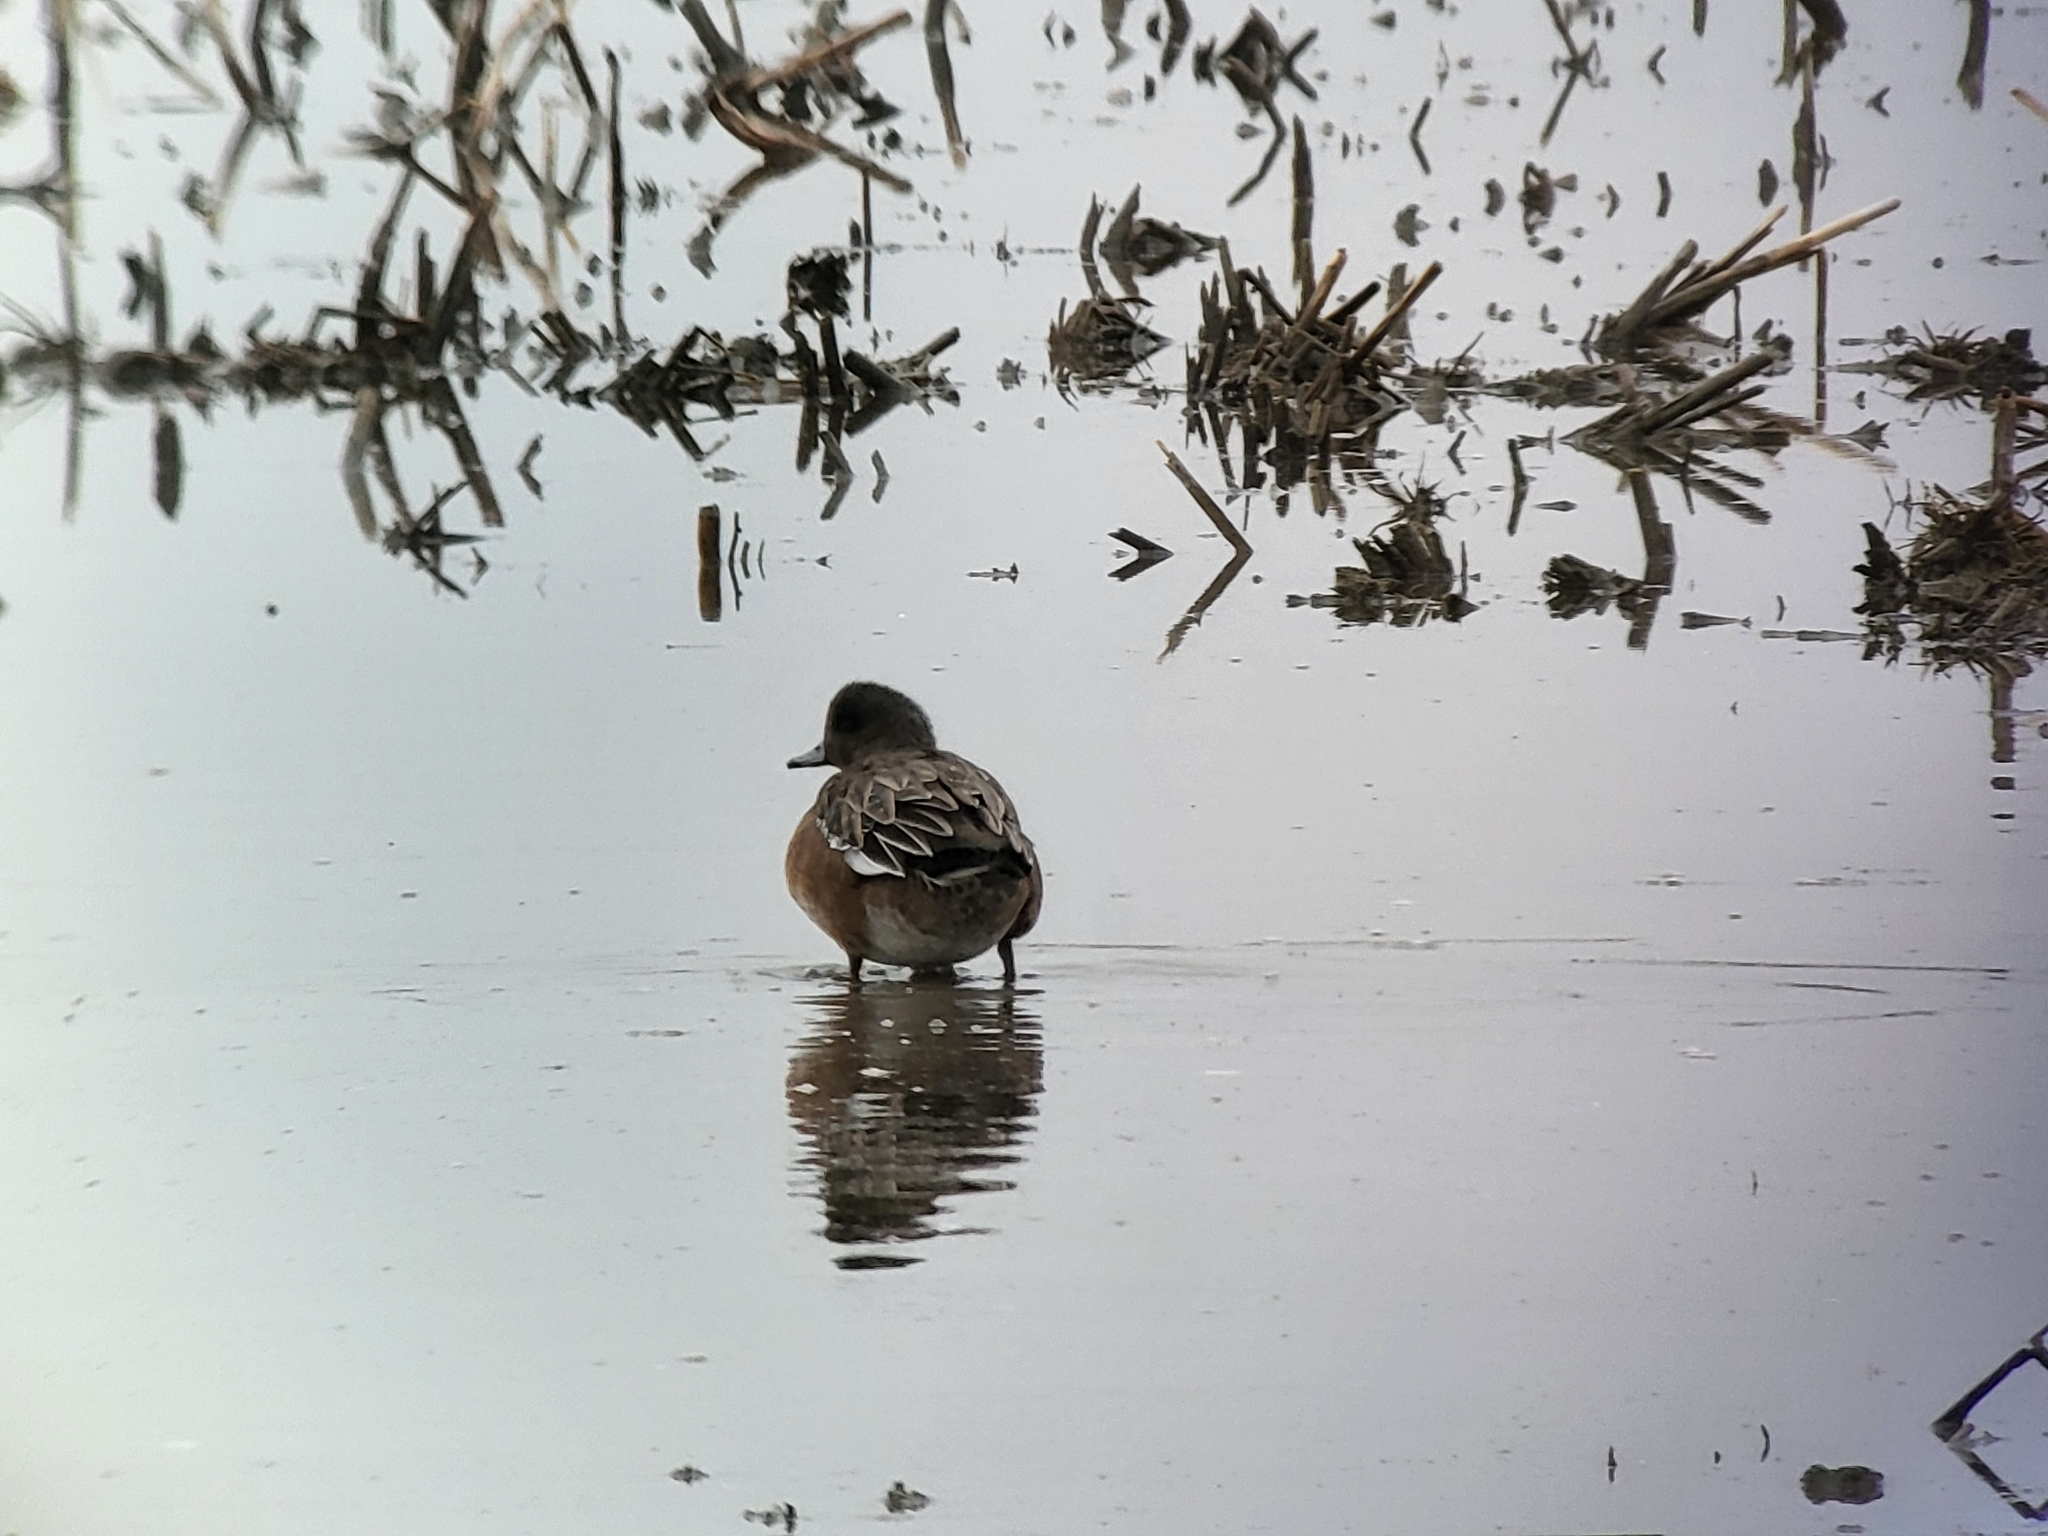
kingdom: Animalia
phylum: Chordata
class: Aves
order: Anseriformes
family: Anatidae
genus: Mareca
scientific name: Mareca americana
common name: American wigeon
